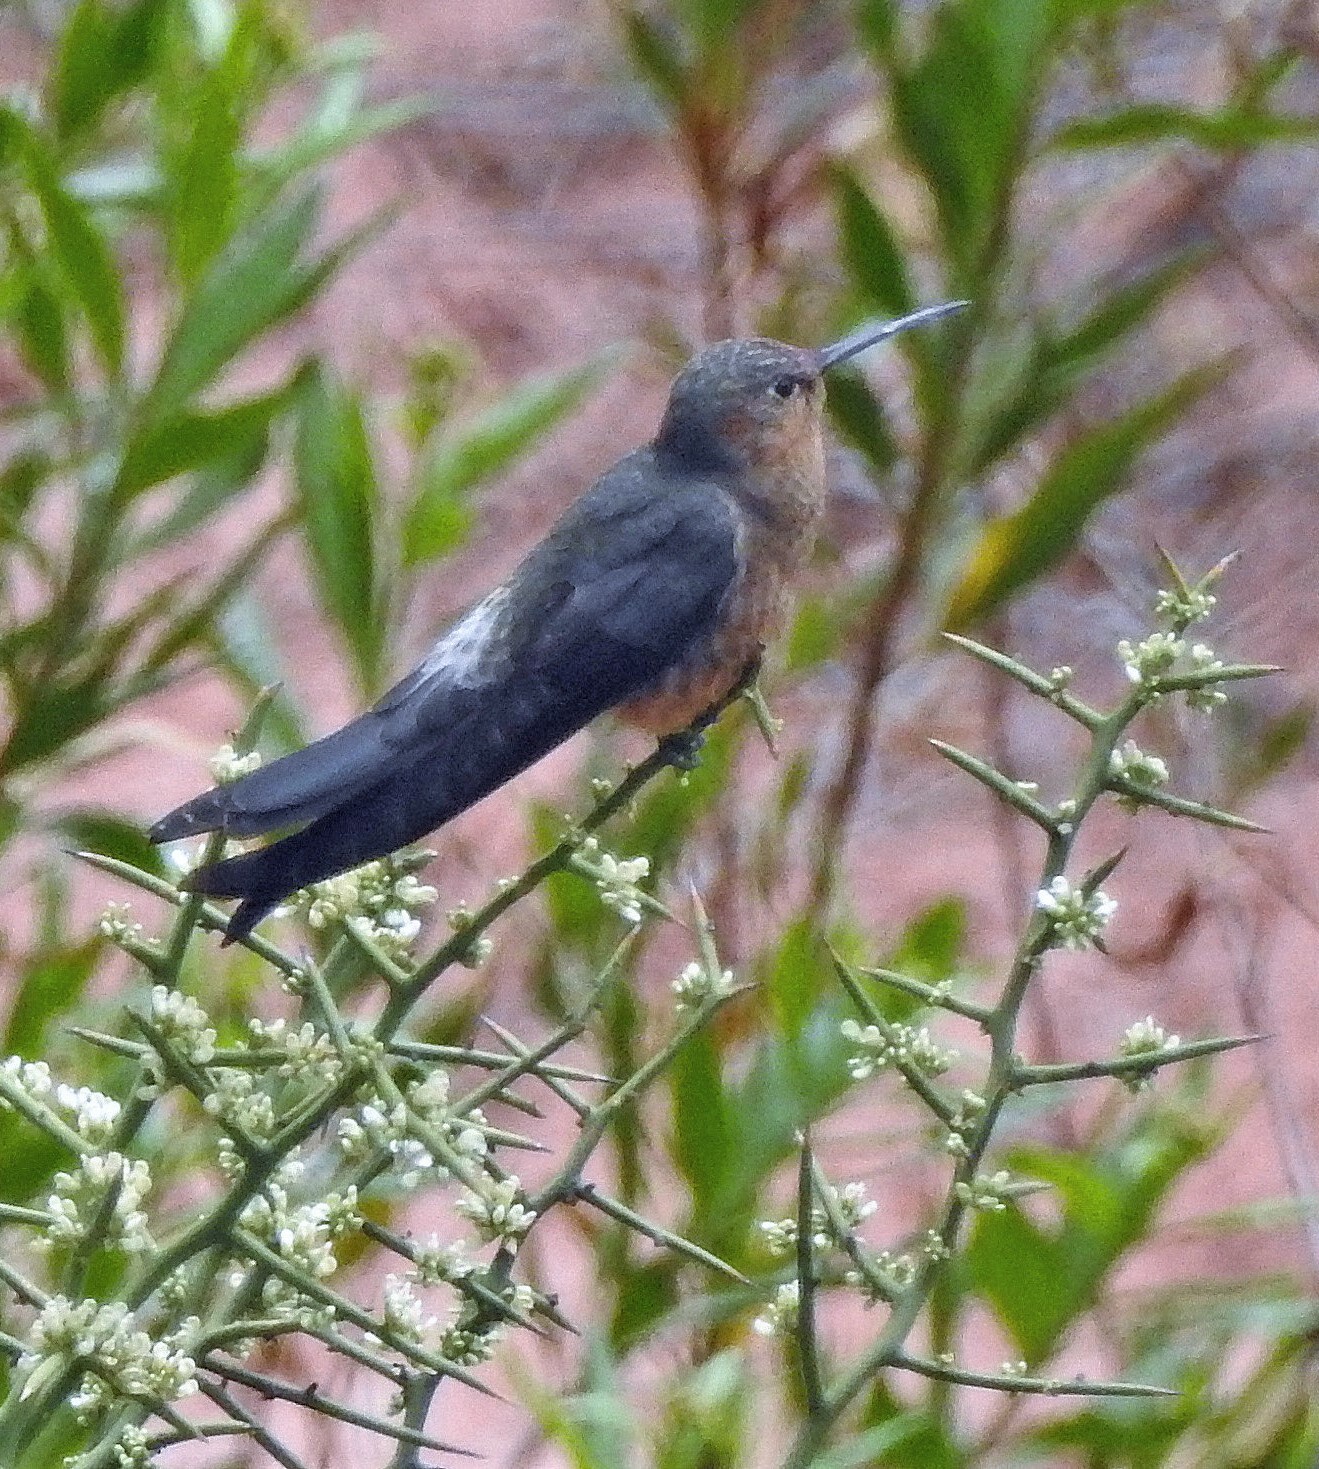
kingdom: Animalia
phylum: Chordata
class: Aves
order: Apodiformes
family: Trochilidae
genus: Patagona
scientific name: Patagona gigas
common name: Giant hummingbird
